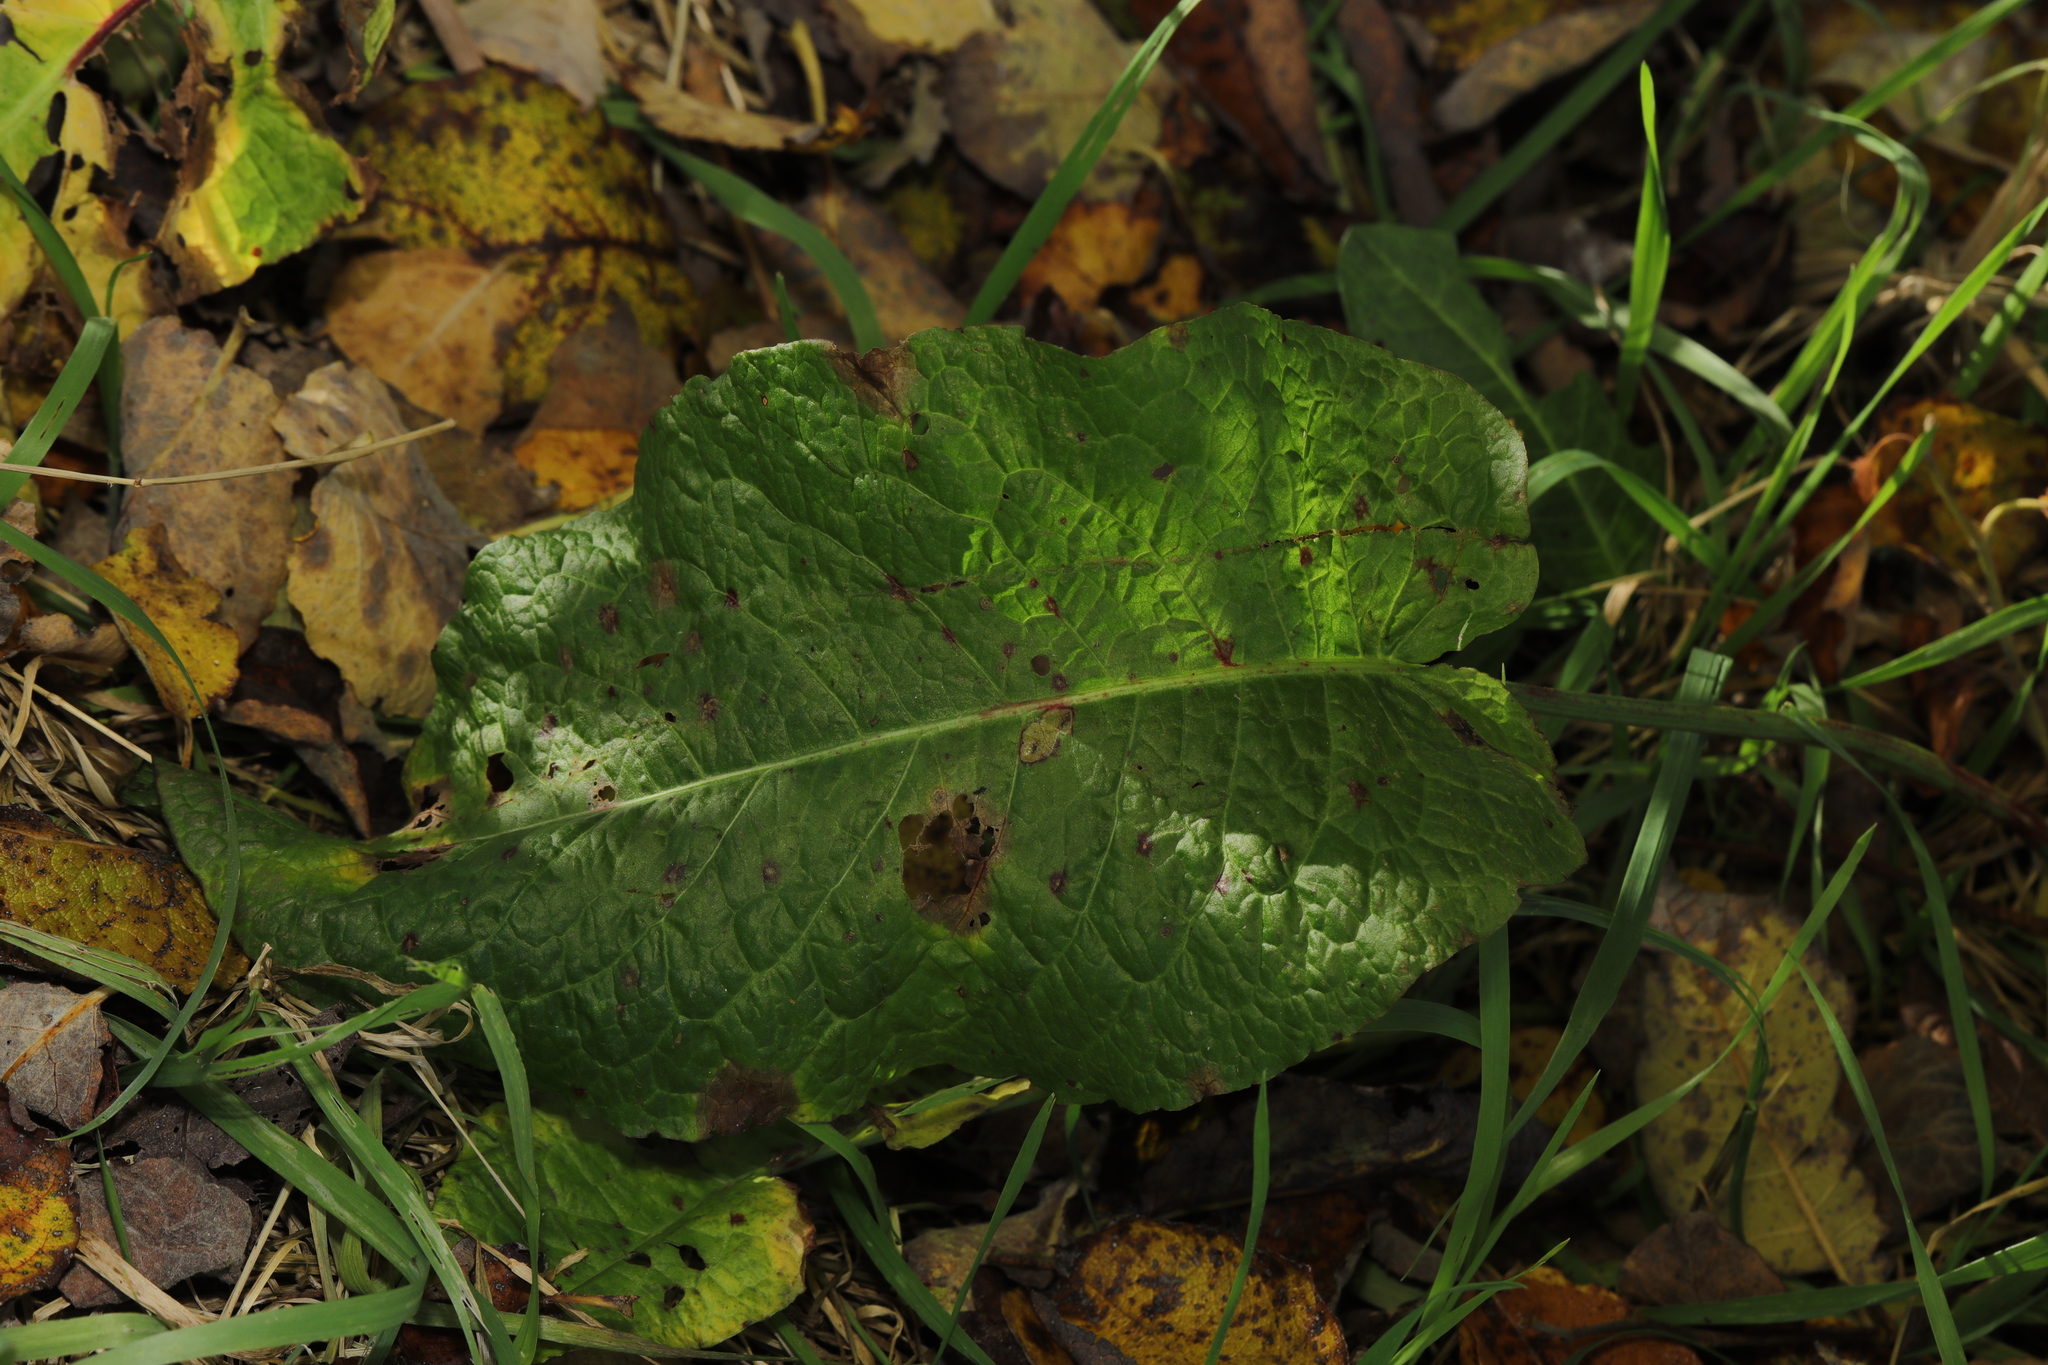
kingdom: Plantae
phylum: Tracheophyta
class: Magnoliopsida
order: Caryophyllales
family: Polygonaceae
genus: Rumex
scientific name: Rumex obtusifolius
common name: Bitter dock
